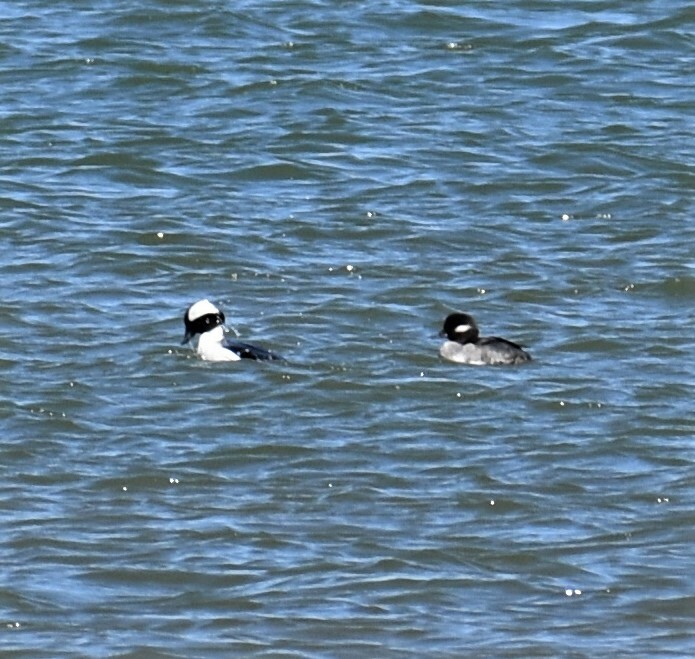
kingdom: Animalia
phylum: Chordata
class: Aves
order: Anseriformes
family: Anatidae
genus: Bucephala
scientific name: Bucephala albeola
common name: Bufflehead
